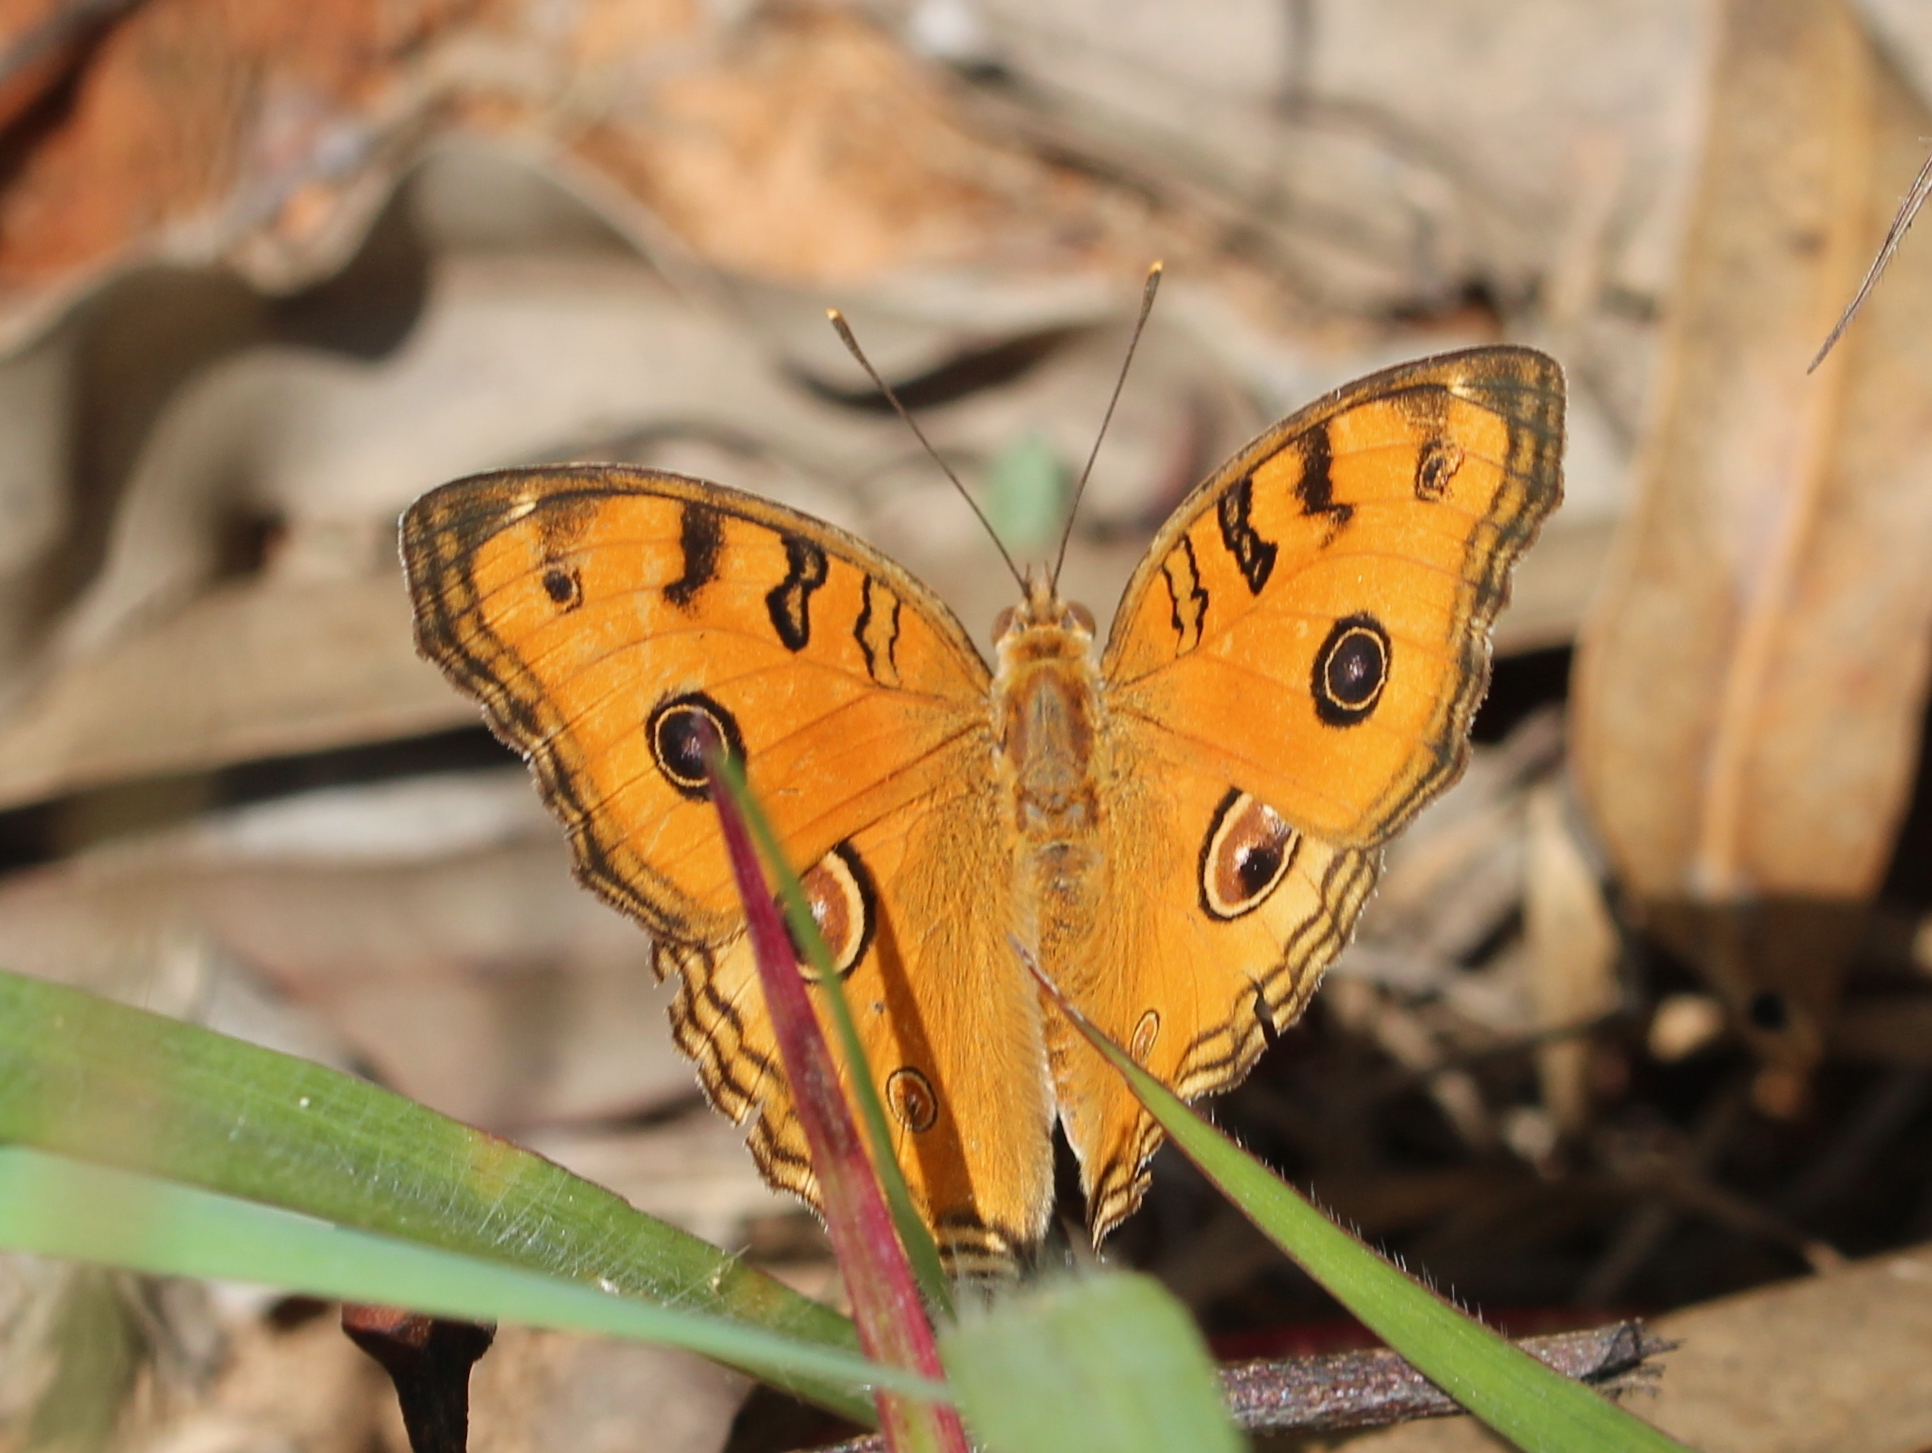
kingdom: Animalia
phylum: Arthropoda
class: Insecta
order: Lepidoptera
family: Nymphalidae
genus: Junonia
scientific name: Junonia almana
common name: Peacock pansy
